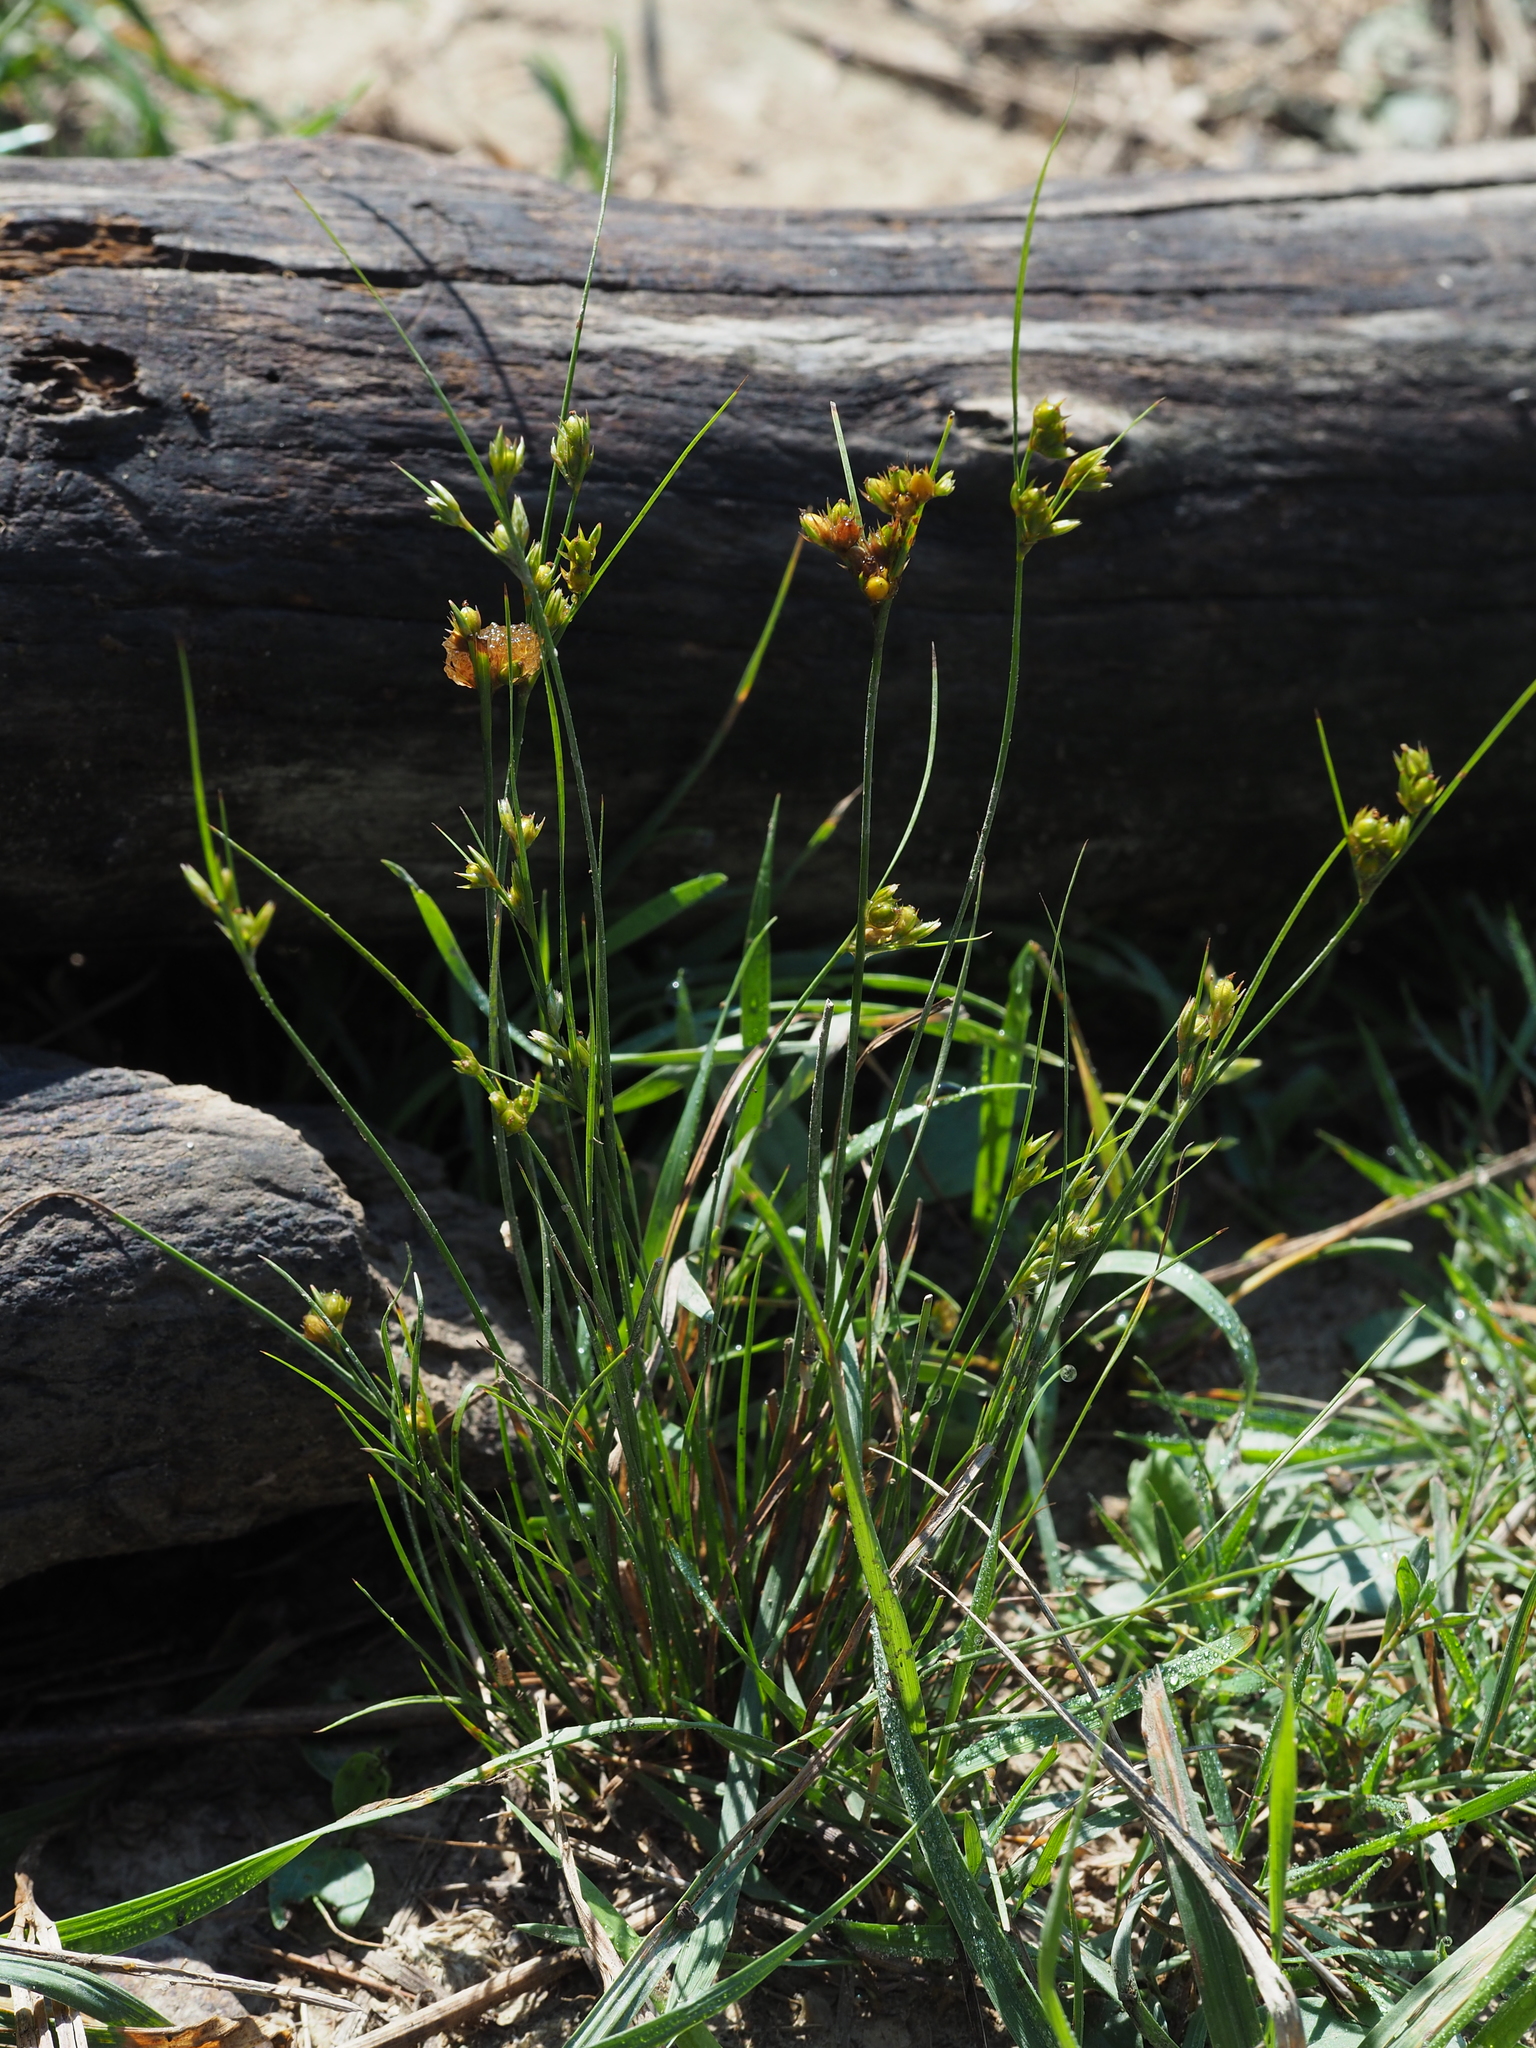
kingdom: Plantae
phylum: Tracheophyta
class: Liliopsida
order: Poales
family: Juncaceae
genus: Juncus
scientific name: Juncus tenuis
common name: Slender rush
